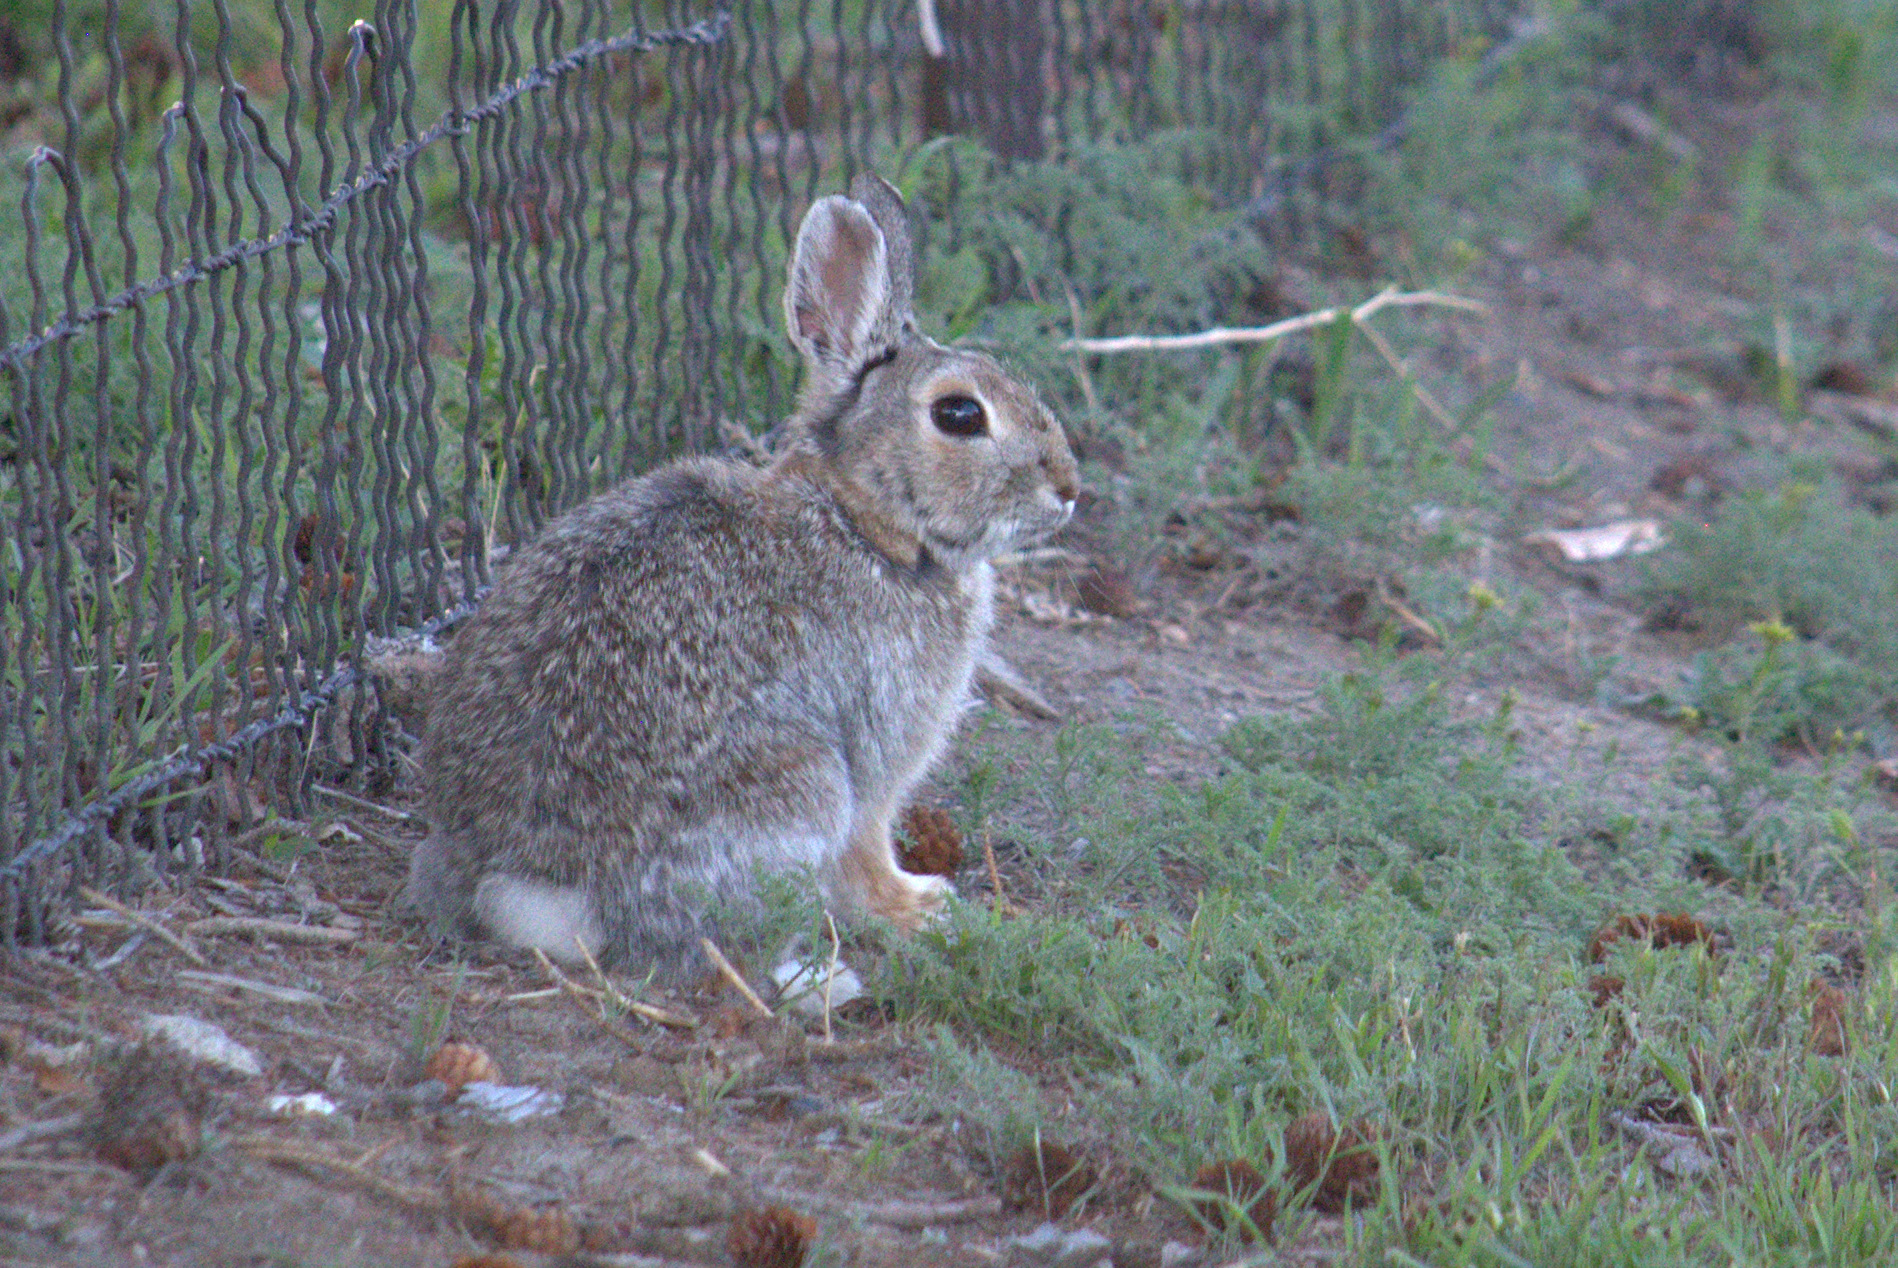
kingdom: Animalia
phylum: Chordata
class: Mammalia
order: Lagomorpha
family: Leporidae
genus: Sylvilagus
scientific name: Sylvilagus nuttallii
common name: Mountain cottontail
